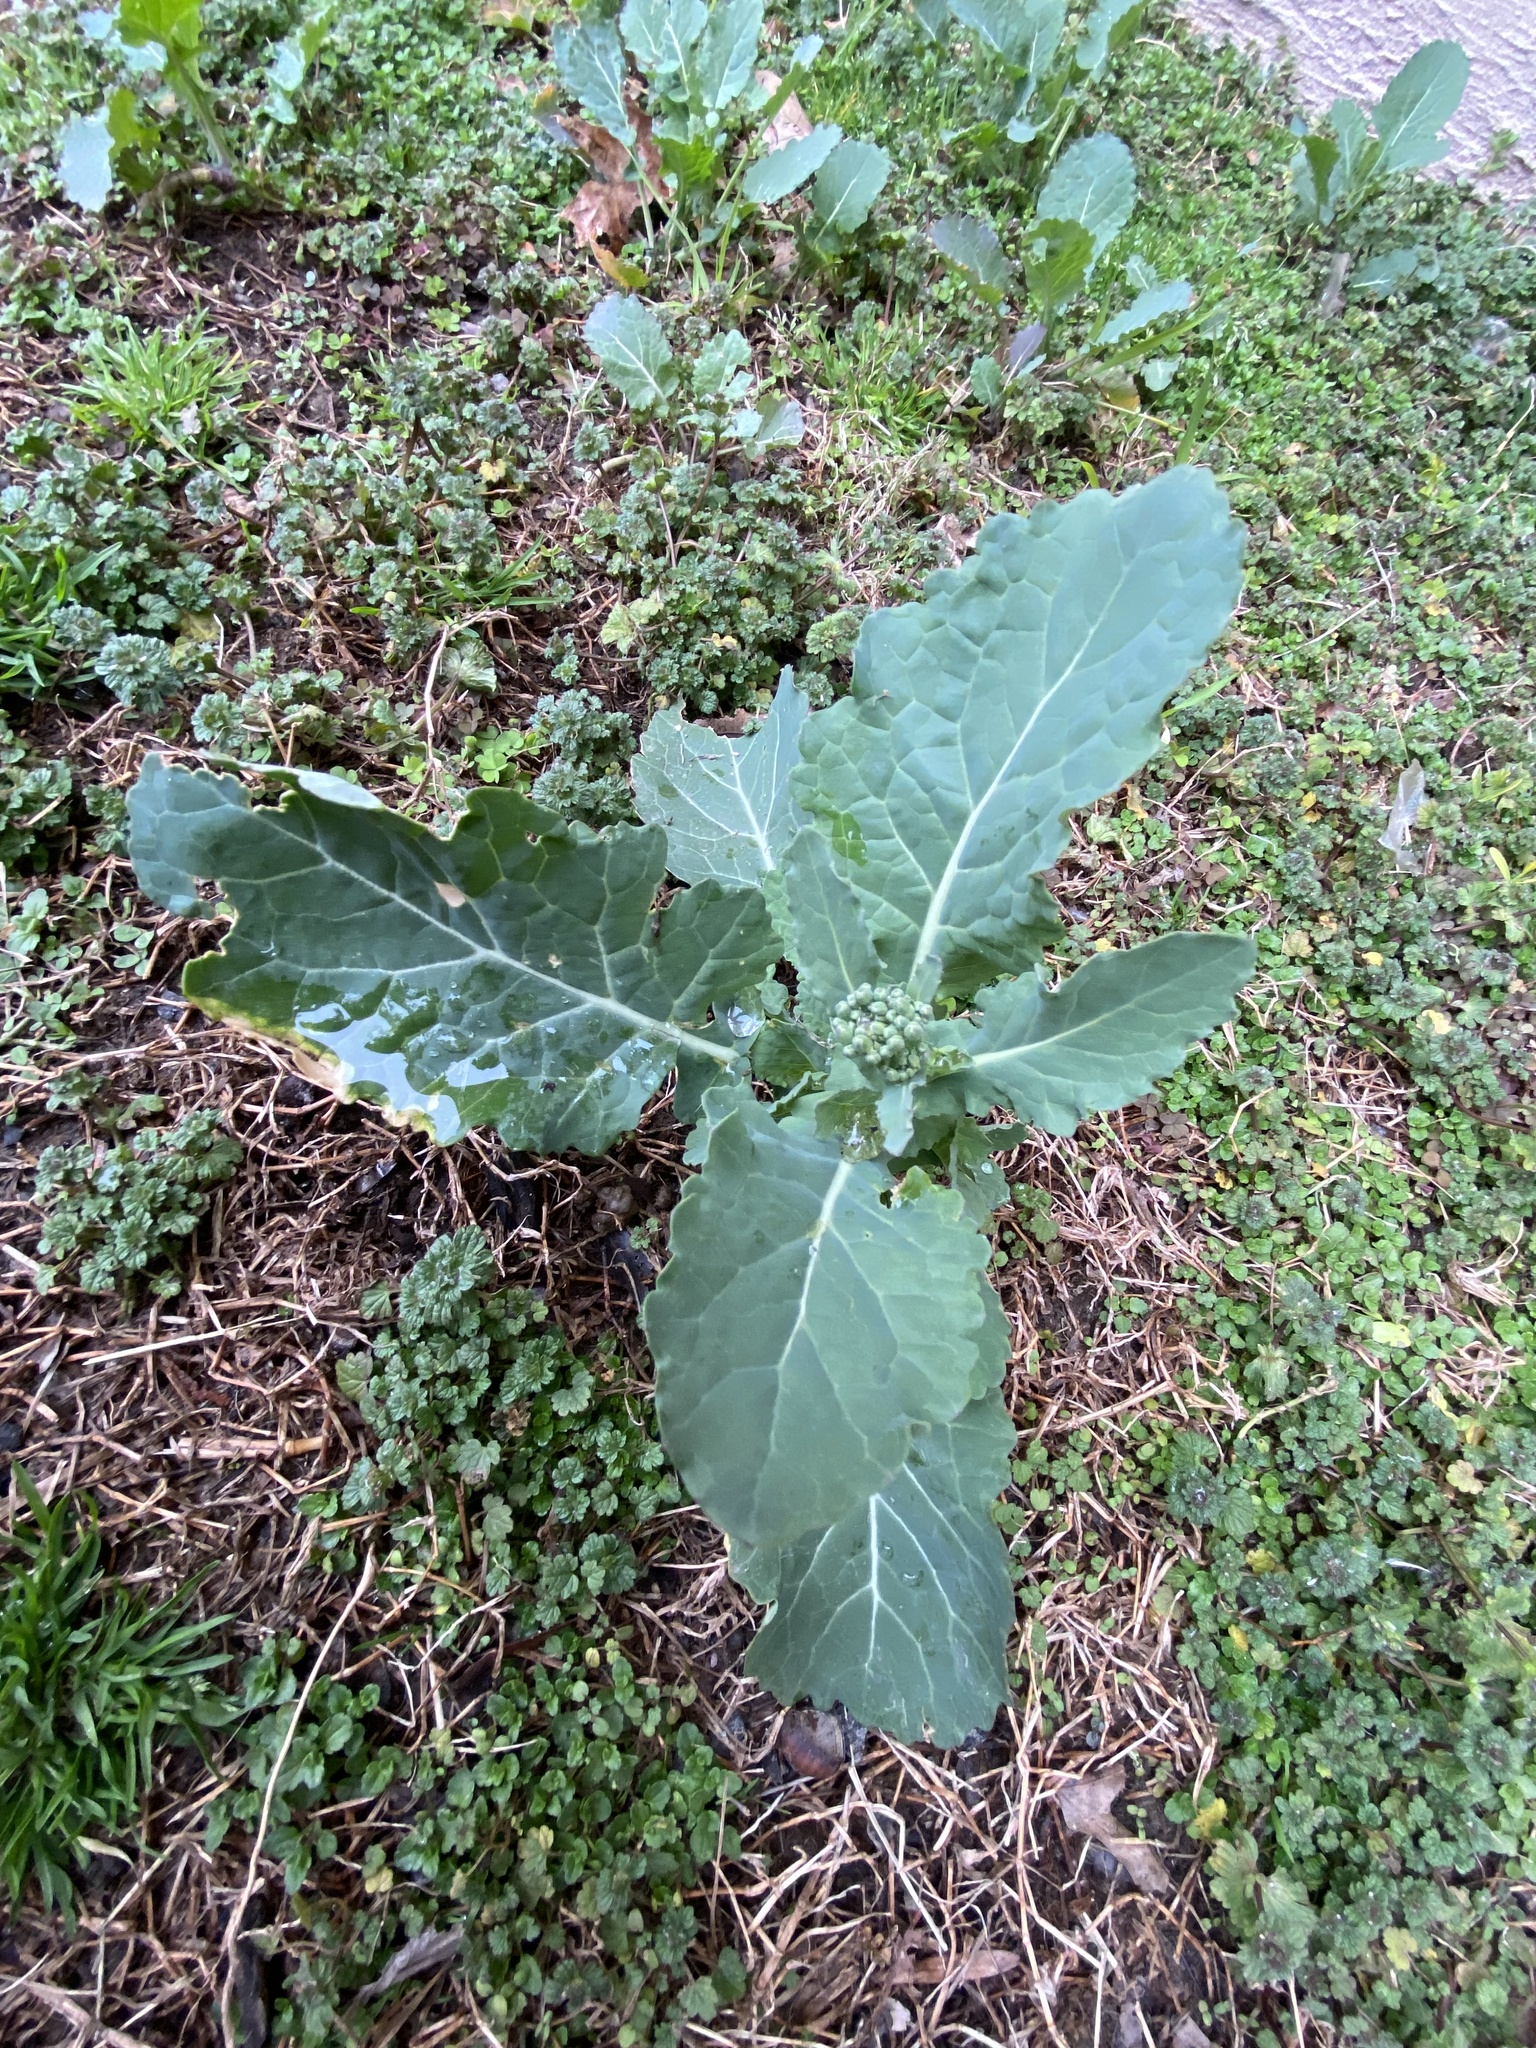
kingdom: Plantae
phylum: Tracheophyta
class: Magnoliopsida
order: Brassicales
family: Brassicaceae
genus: Brassica
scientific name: Brassica oleracea
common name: Cabbage
